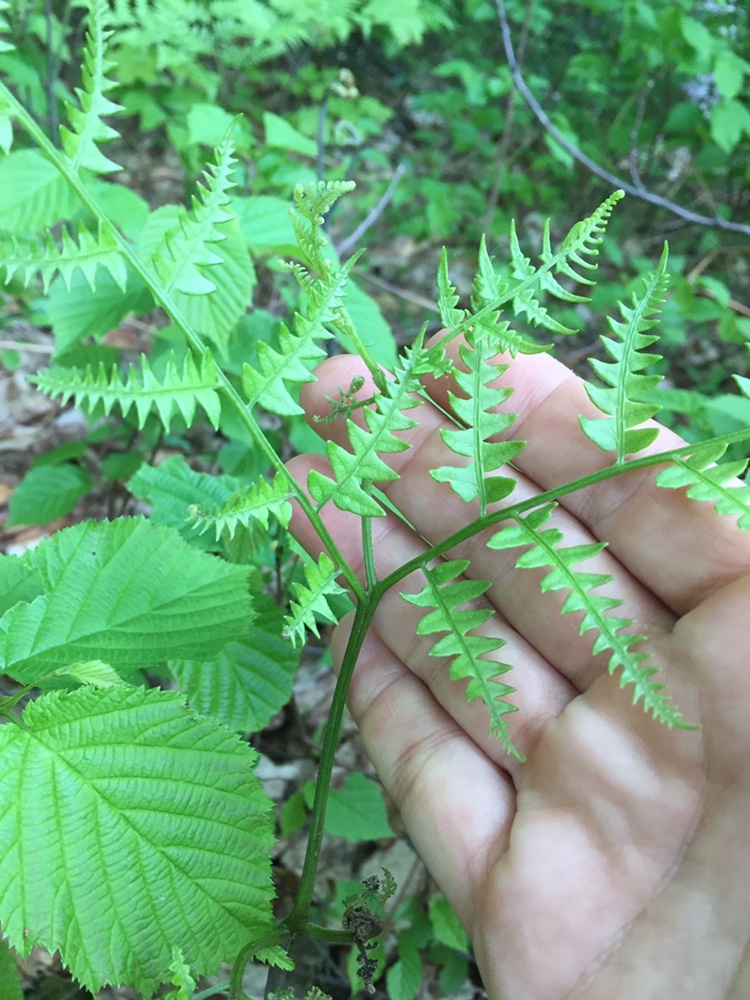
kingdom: Plantae
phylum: Tracheophyta
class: Polypodiopsida
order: Polypodiales
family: Dennstaedtiaceae
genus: Pteridium
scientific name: Pteridium aquilinum
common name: Bracken
